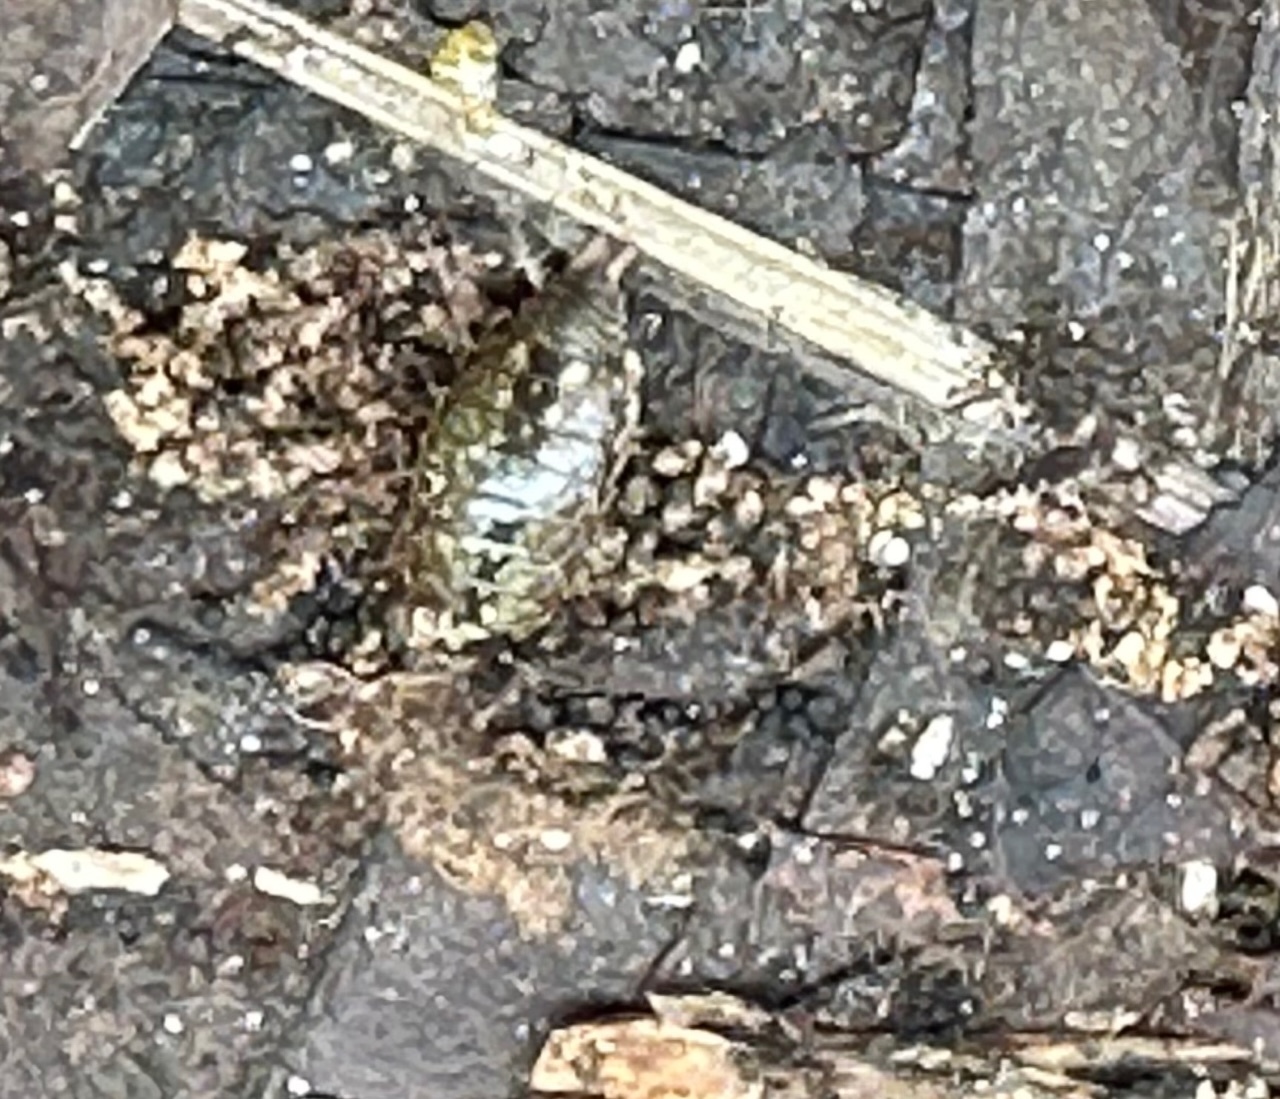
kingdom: Animalia
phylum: Arthropoda
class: Malacostraca
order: Isopoda
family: Philosciidae
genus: Philoscia
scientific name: Philoscia muscorum
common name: Common striped woodlouse
